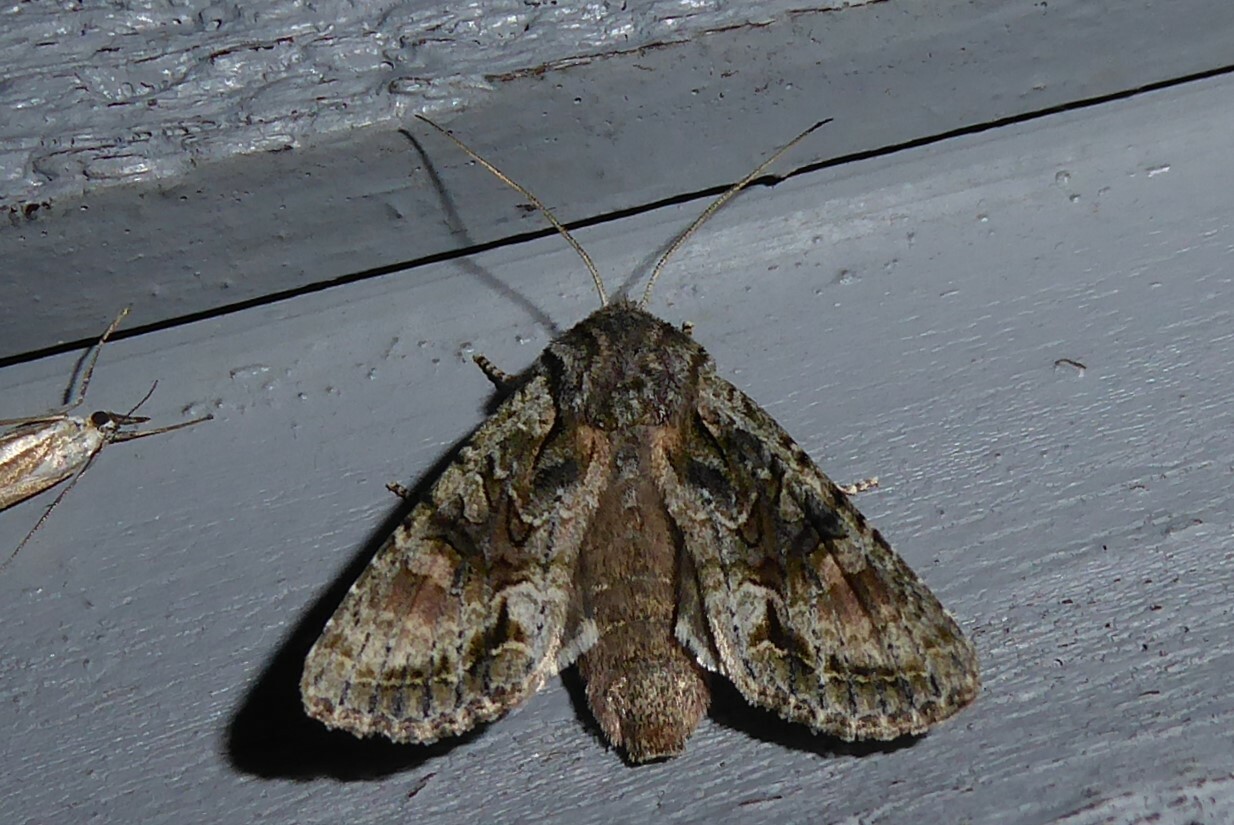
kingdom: Animalia
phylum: Arthropoda
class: Insecta
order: Lepidoptera
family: Noctuidae
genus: Ichneutica
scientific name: Ichneutica mutans
